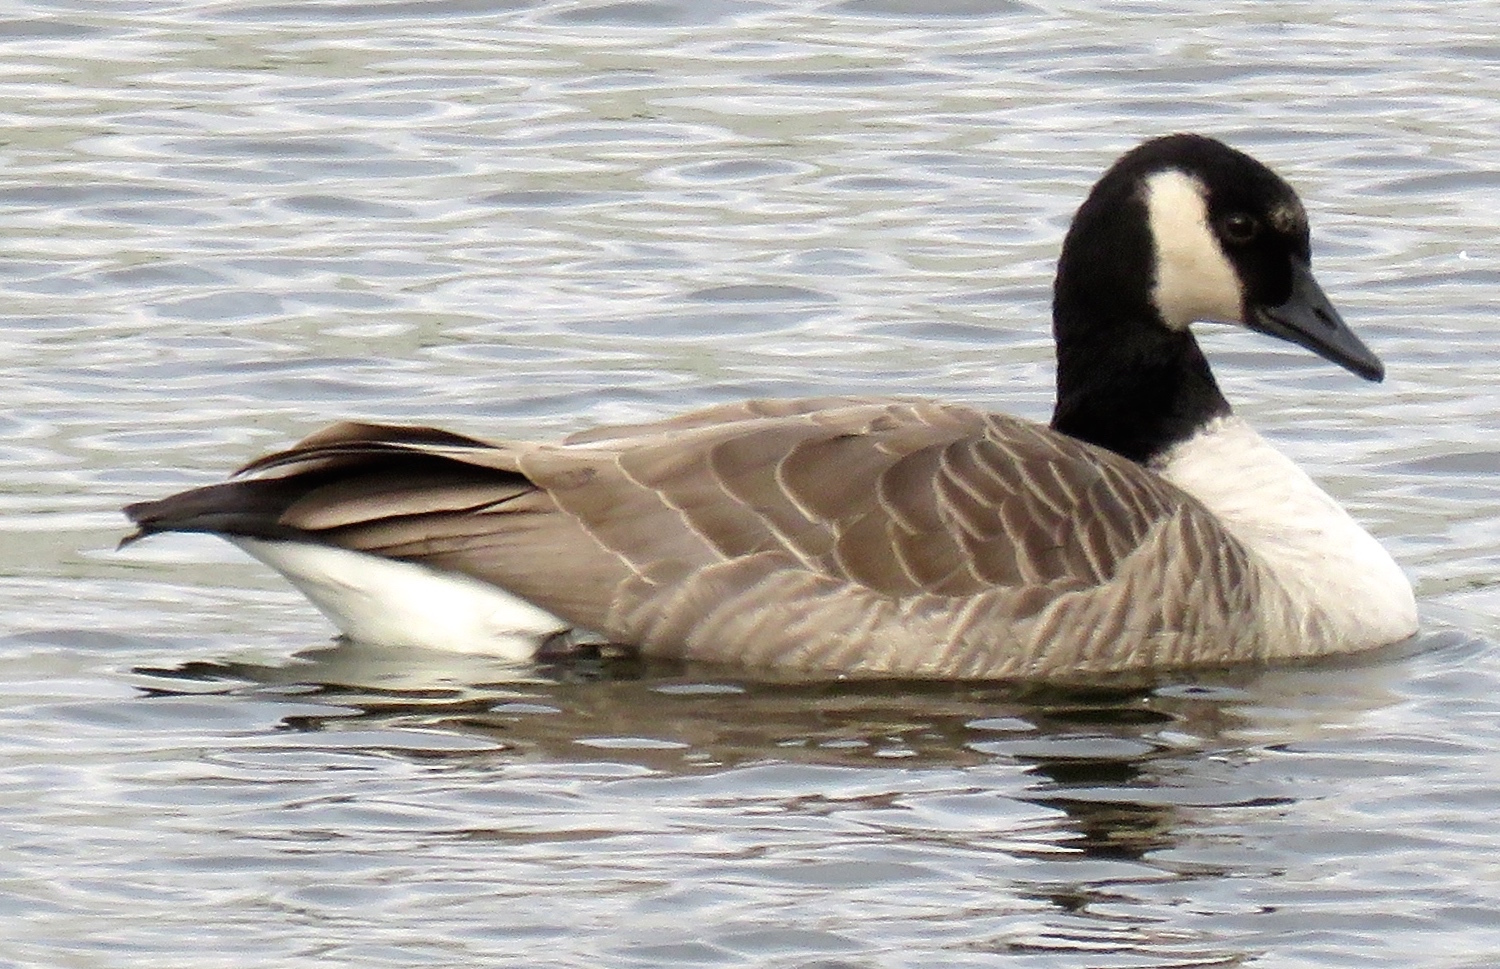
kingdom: Animalia
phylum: Chordata
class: Aves
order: Anseriformes
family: Anatidae
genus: Branta
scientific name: Branta canadensis
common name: Canada goose
